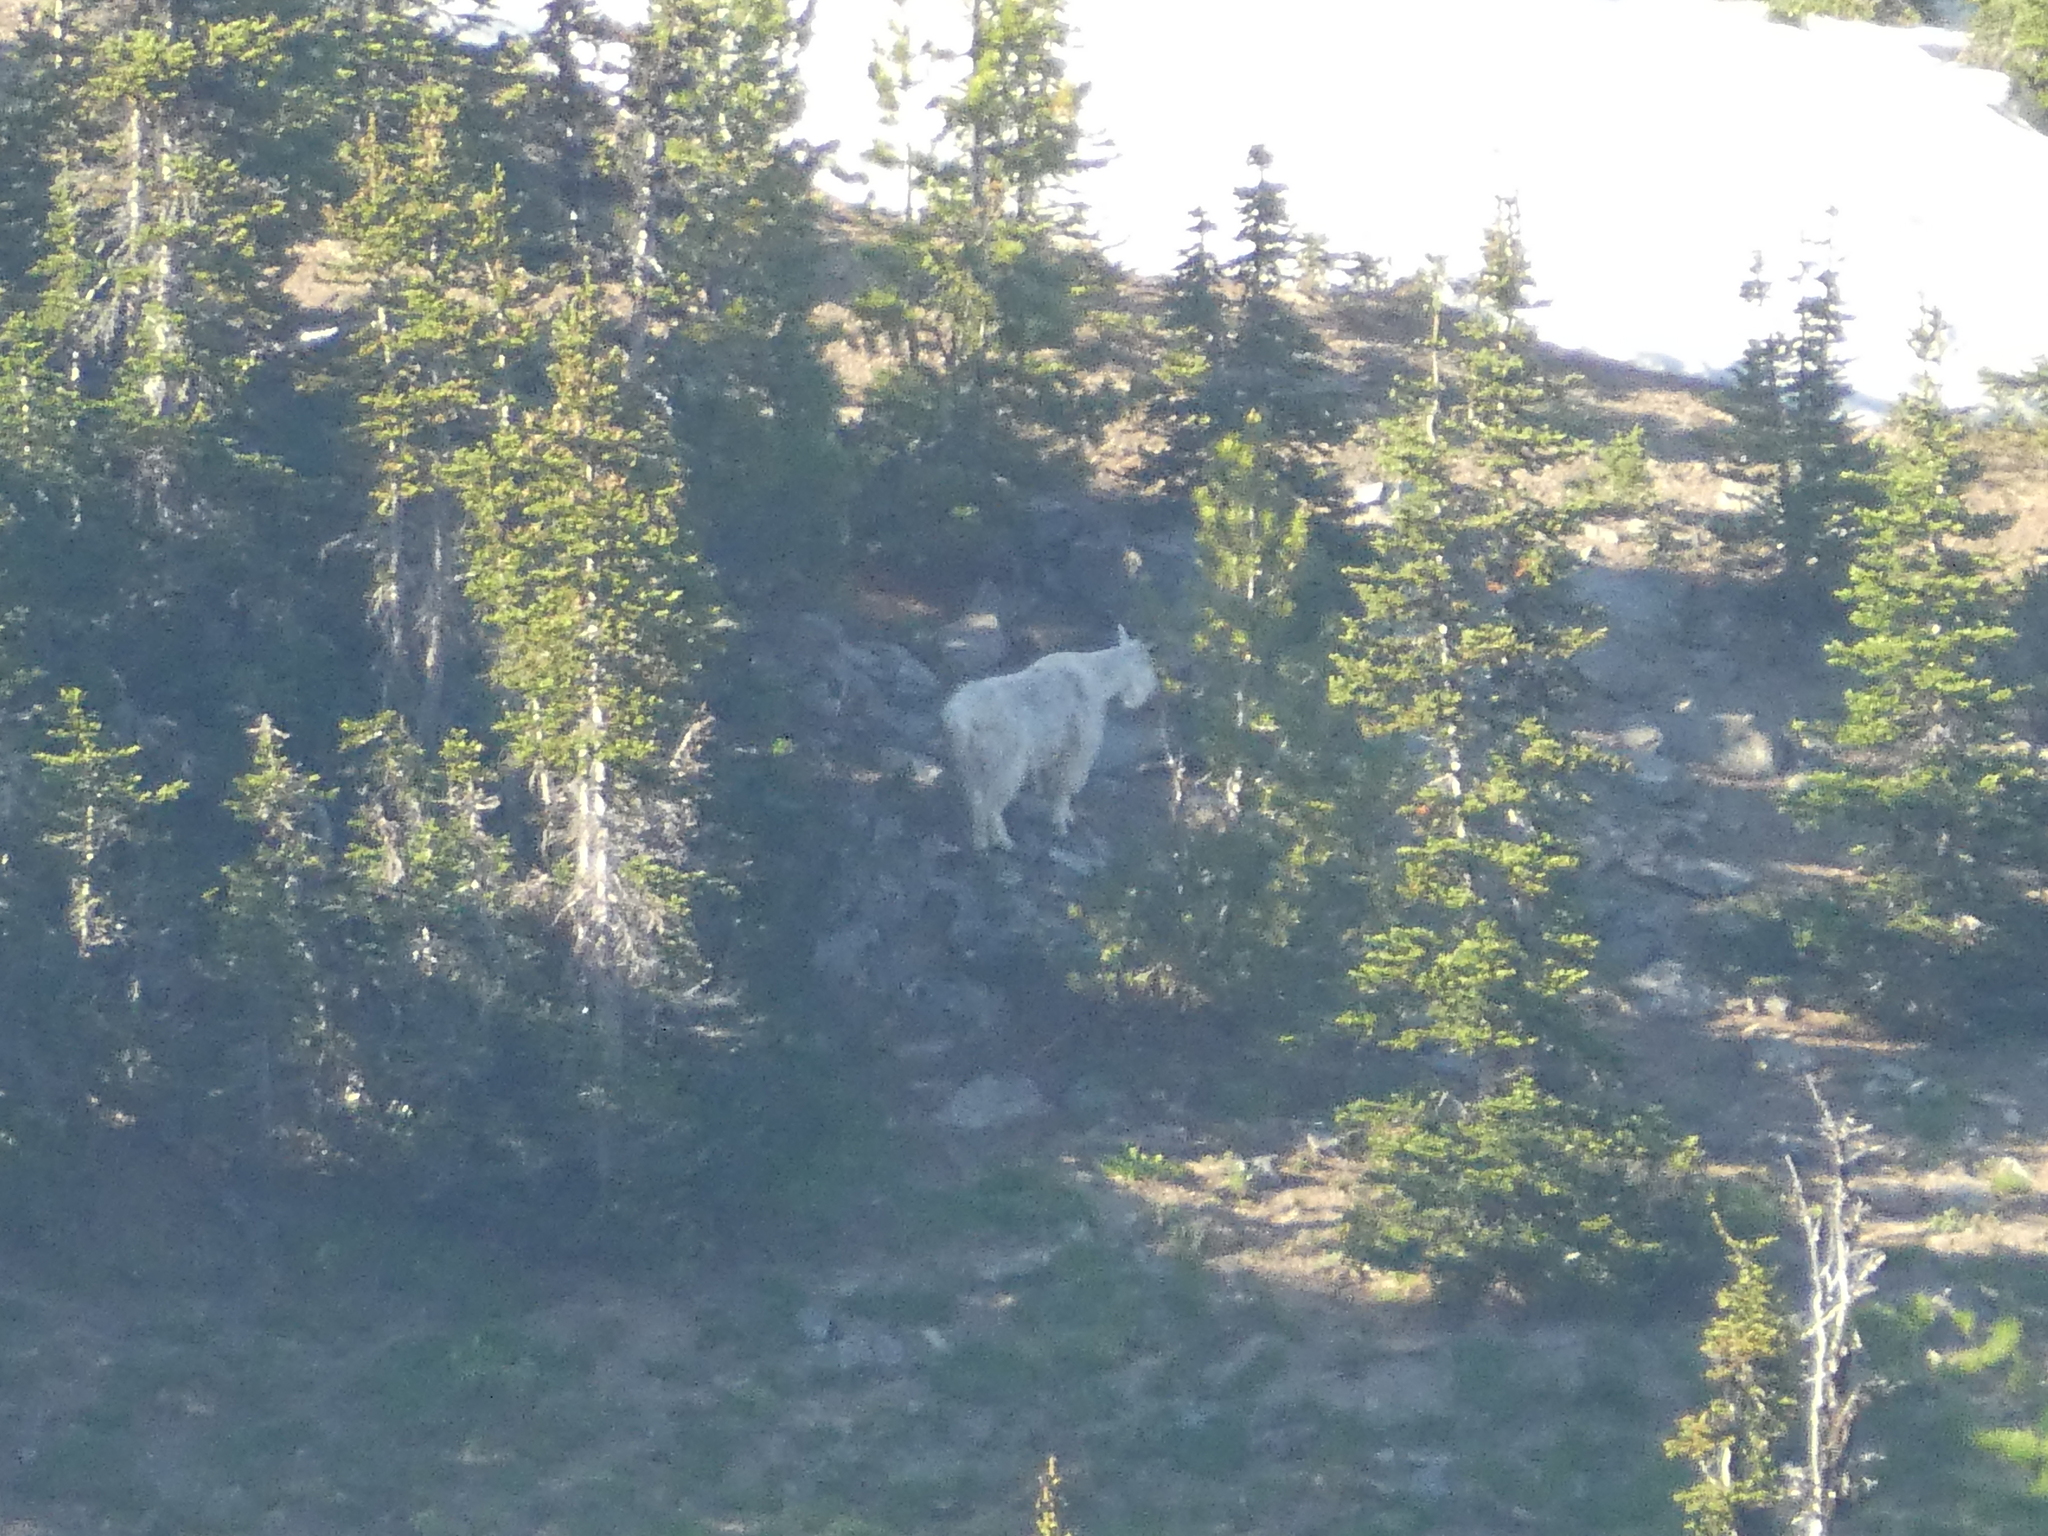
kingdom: Animalia
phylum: Chordata
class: Mammalia
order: Artiodactyla
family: Bovidae
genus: Oreamnos
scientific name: Oreamnos americanus
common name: Mountain goat
